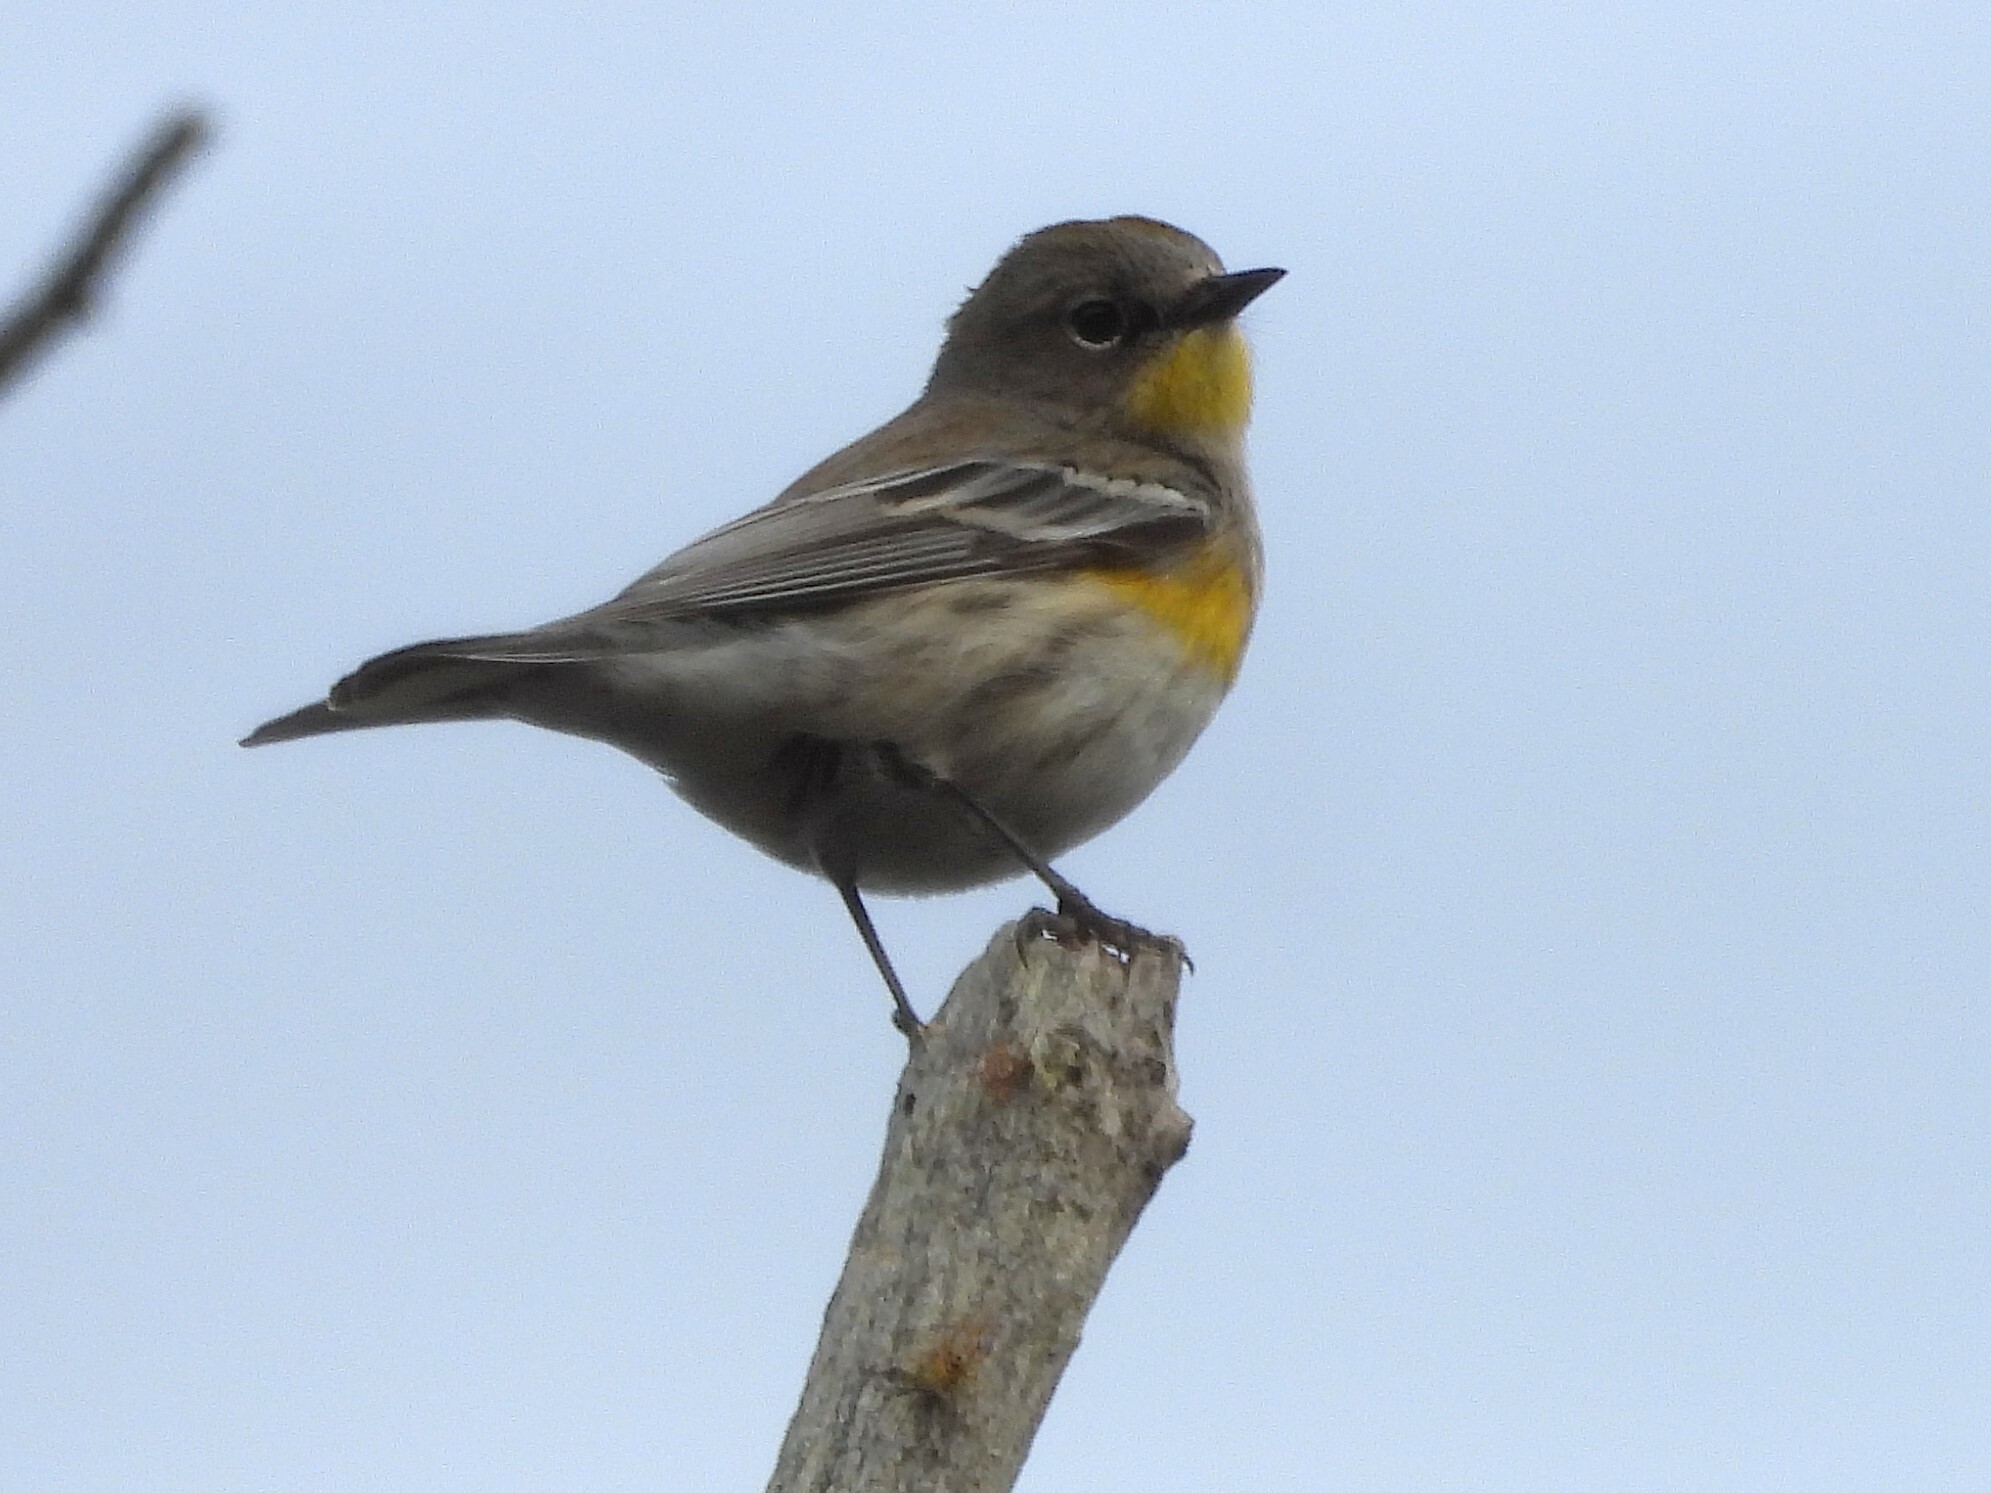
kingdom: Animalia
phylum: Chordata
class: Aves
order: Passeriformes
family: Parulidae
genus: Setophaga
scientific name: Setophaga coronata
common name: Myrtle warbler
